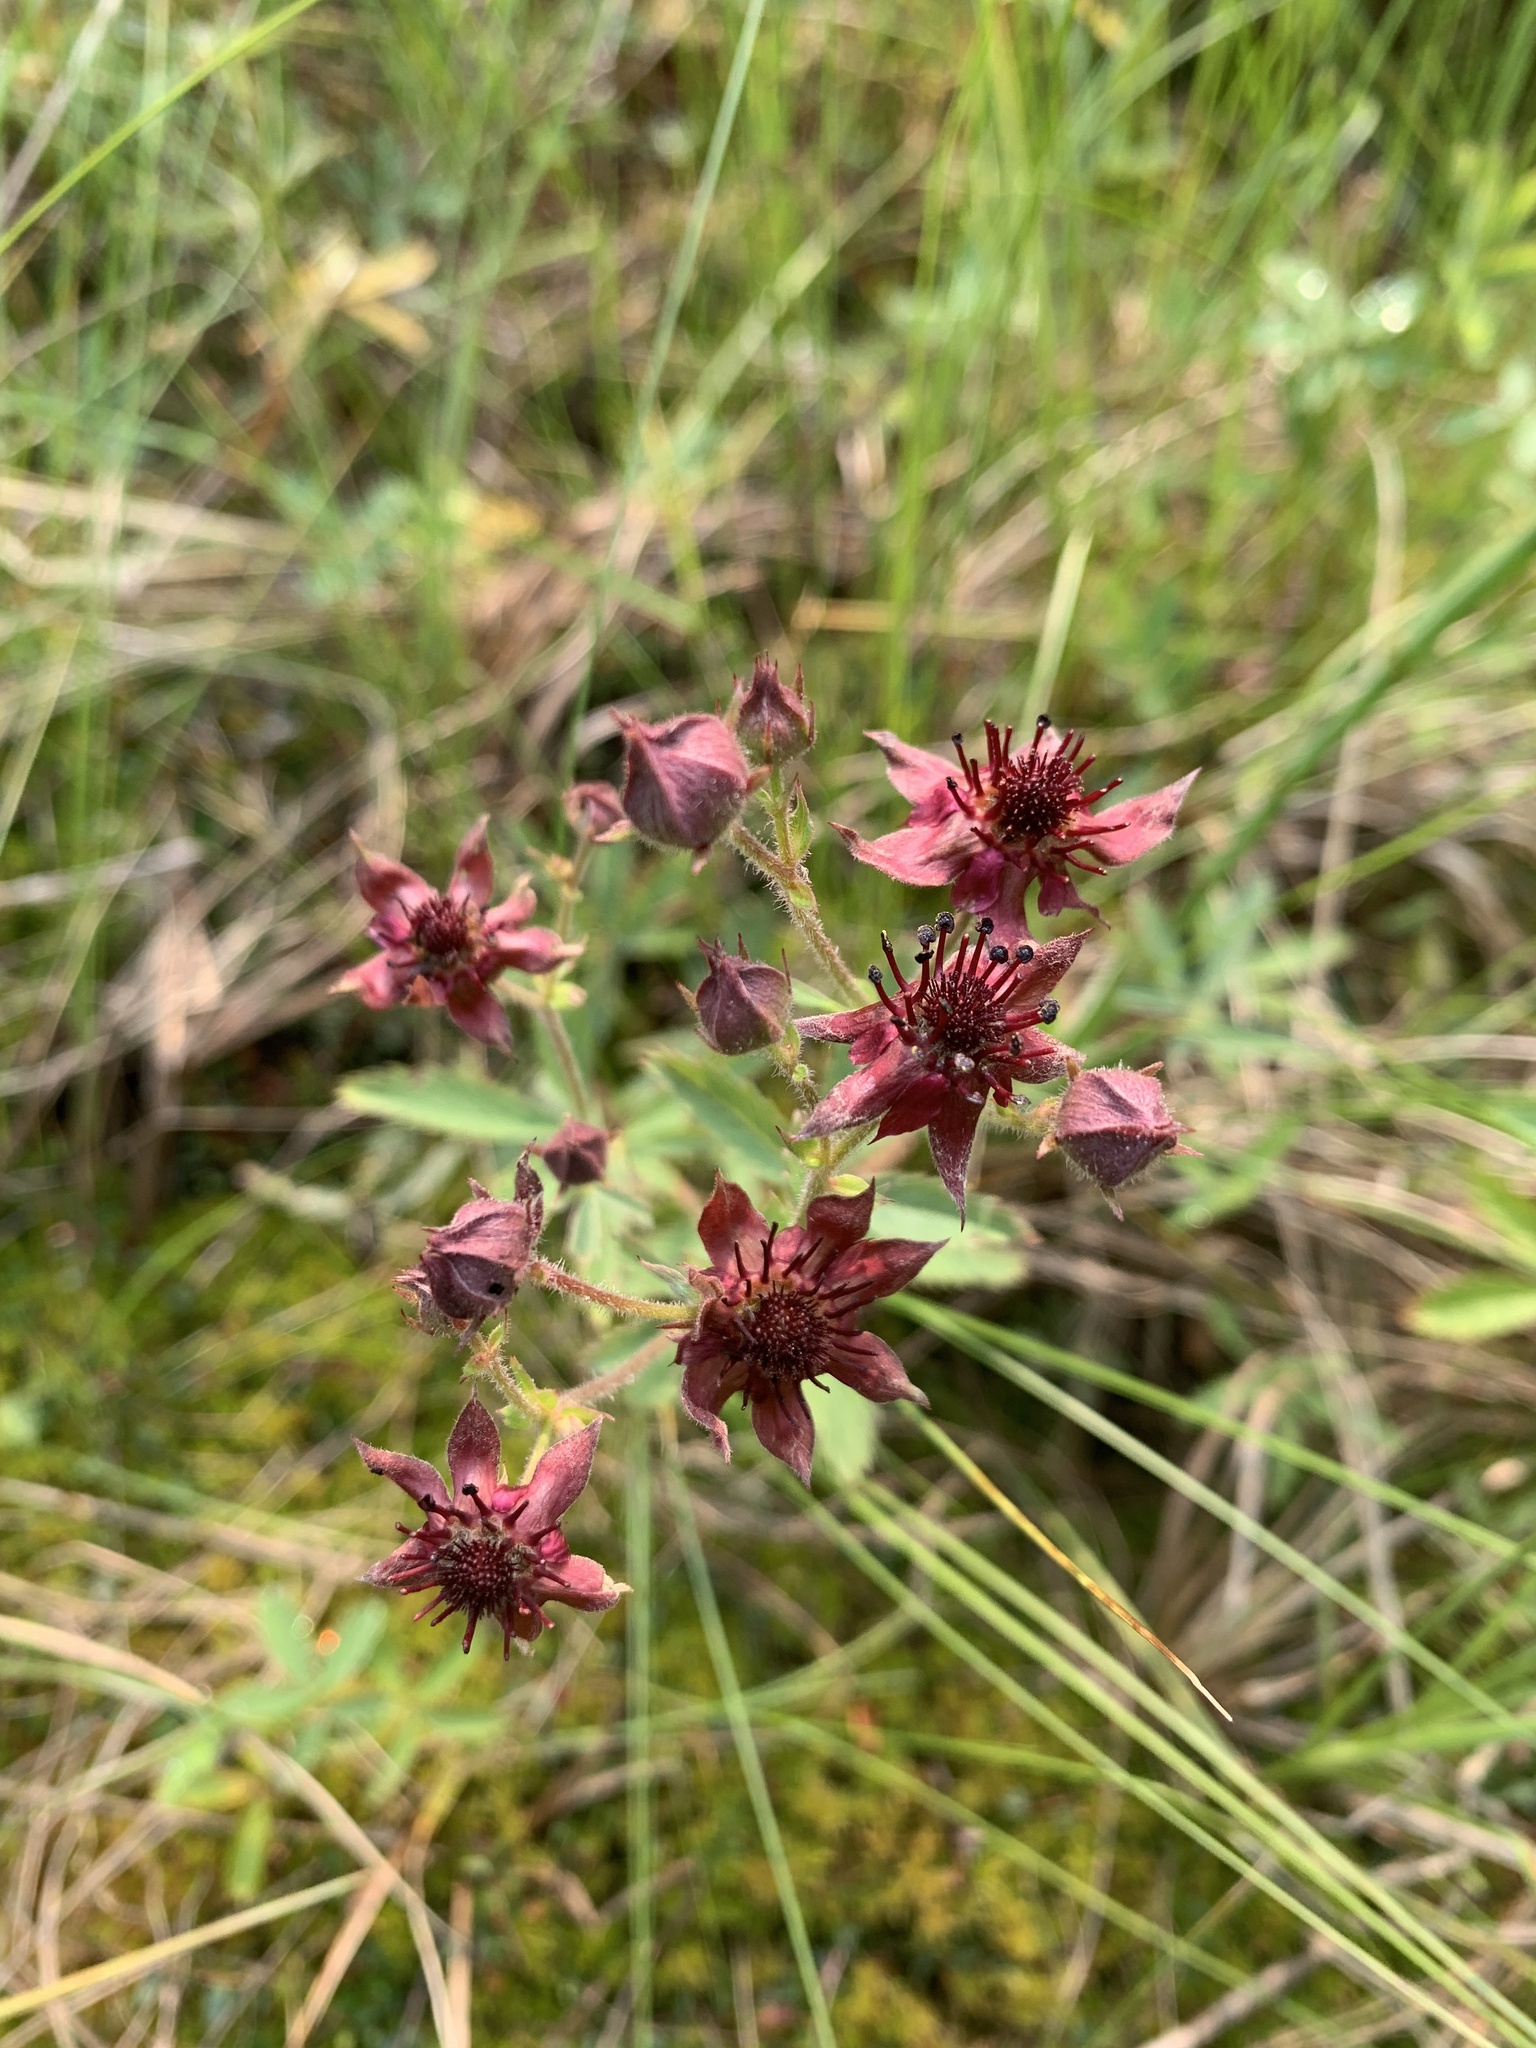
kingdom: Plantae
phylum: Tracheophyta
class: Magnoliopsida
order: Rosales
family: Rosaceae
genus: Comarum
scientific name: Comarum palustre
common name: Marsh cinquefoil
